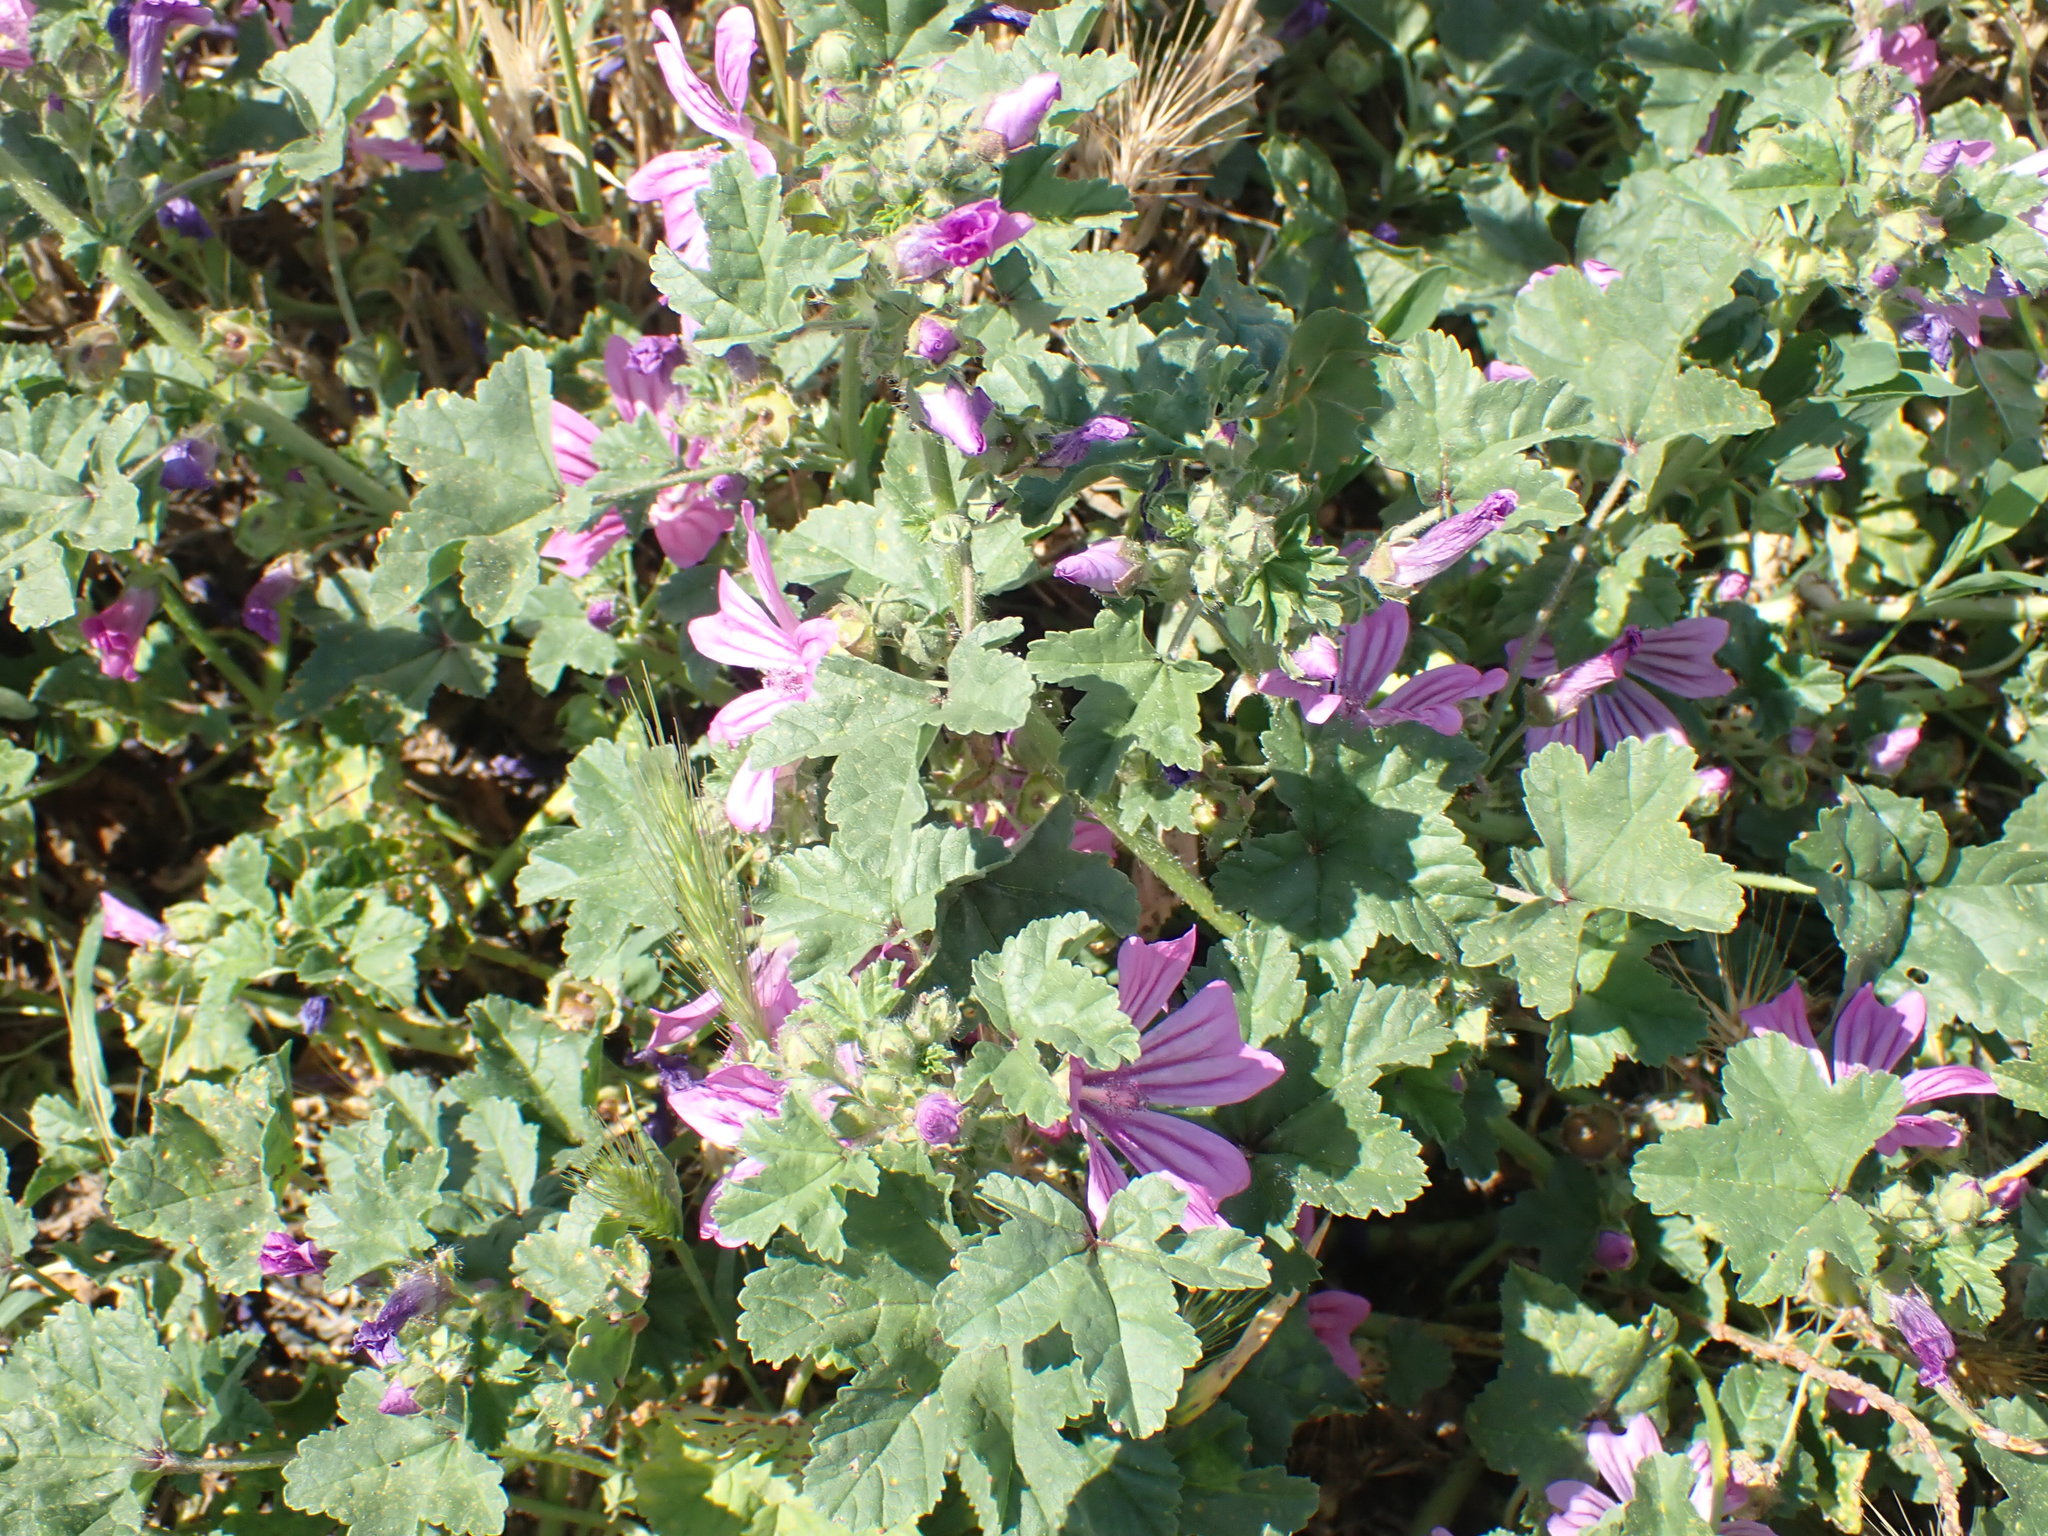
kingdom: Plantae
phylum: Tracheophyta
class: Magnoliopsida
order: Malvales
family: Malvaceae
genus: Malva
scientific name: Malva sylvestris
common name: Common mallow
